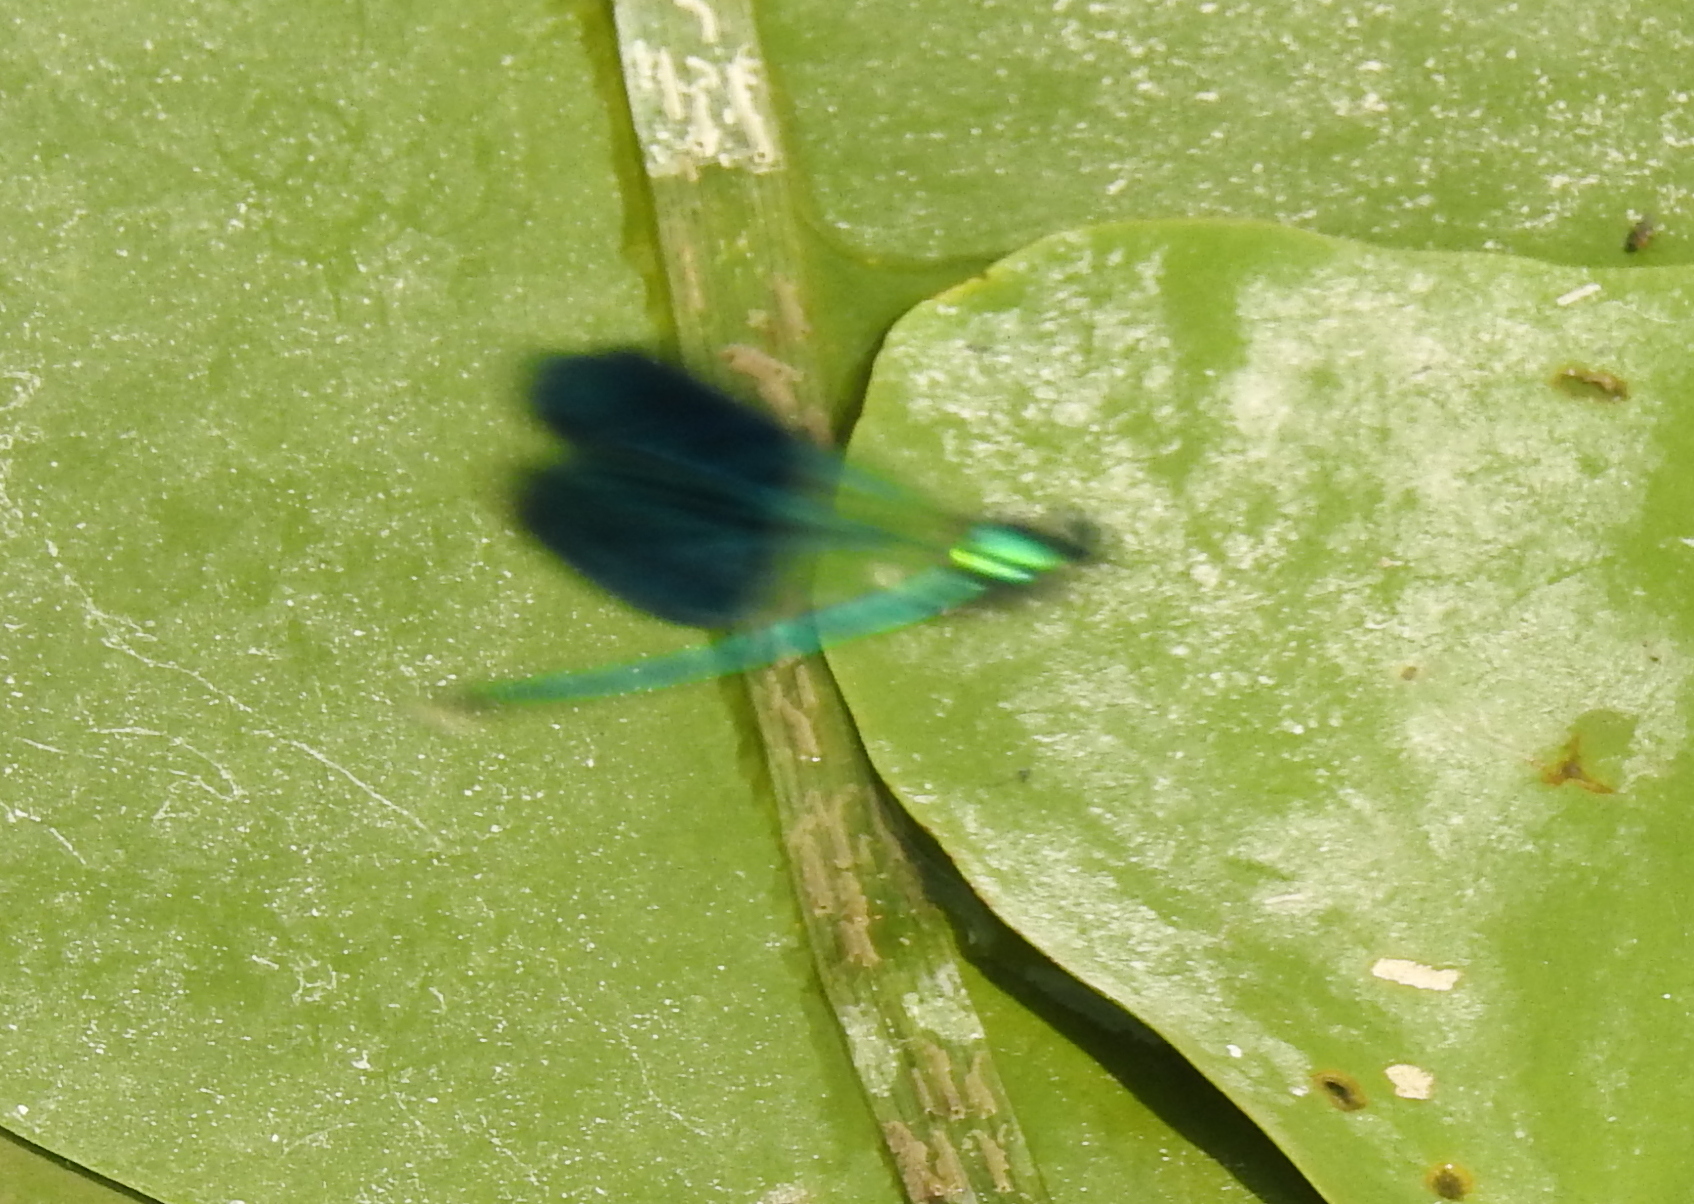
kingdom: Animalia
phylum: Arthropoda
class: Insecta
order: Odonata
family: Calopterygidae
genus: Calopteryx
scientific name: Calopteryx splendens
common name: Banded demoiselle
